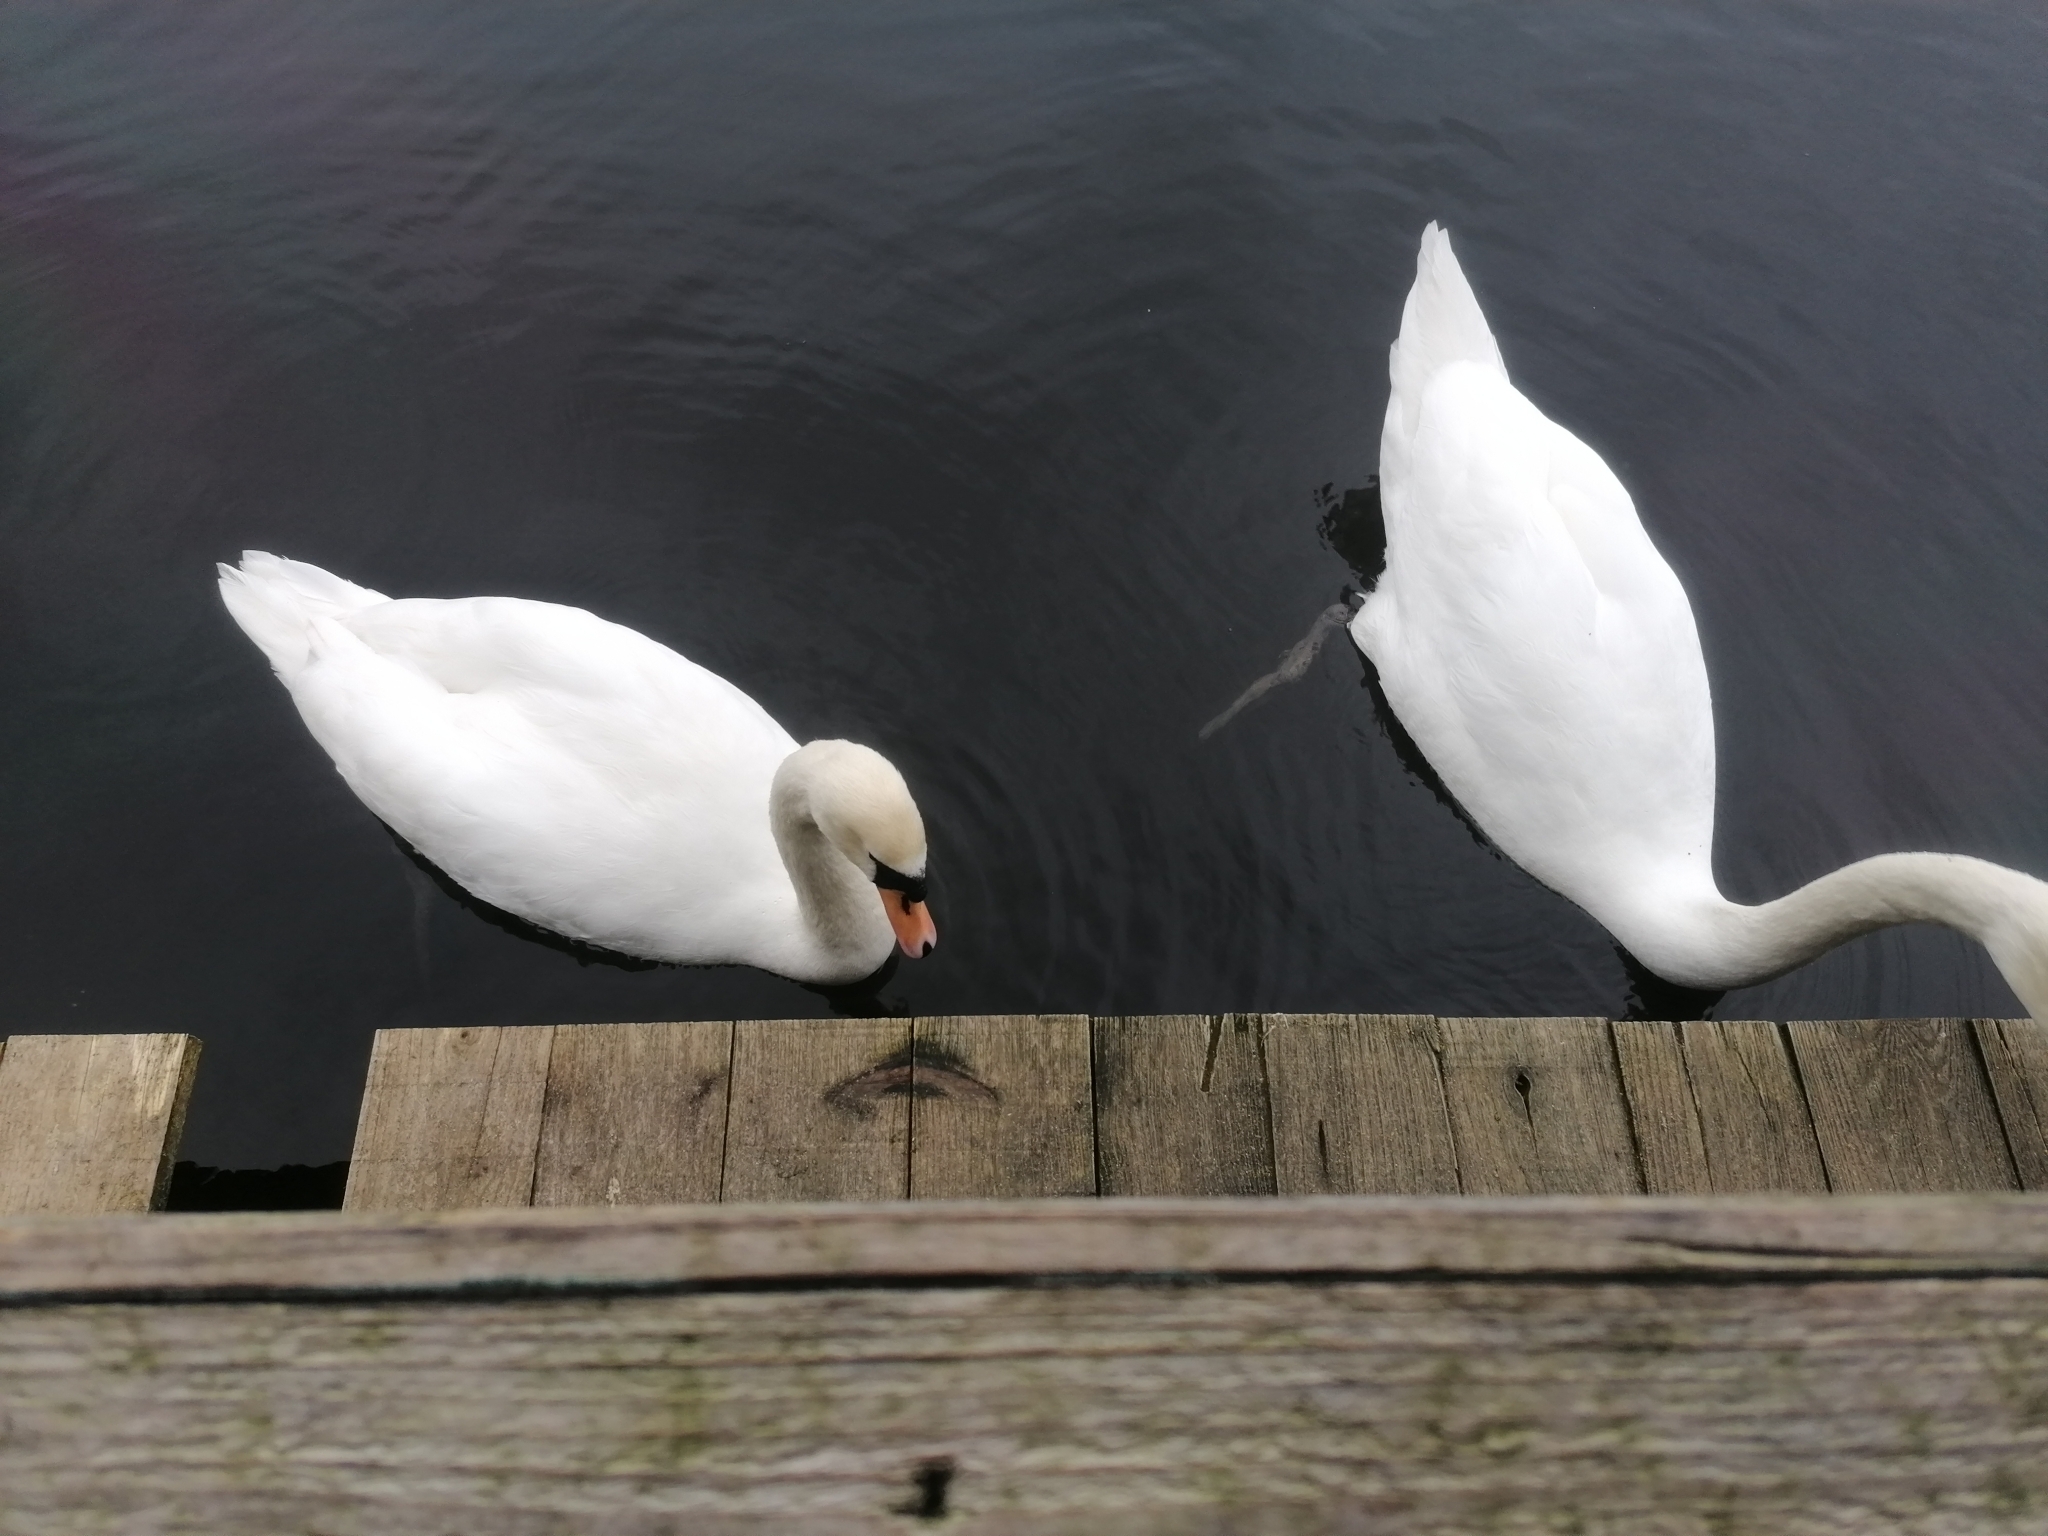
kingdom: Animalia
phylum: Chordata
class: Aves
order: Anseriformes
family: Anatidae
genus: Cygnus
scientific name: Cygnus olor
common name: Mute swan
